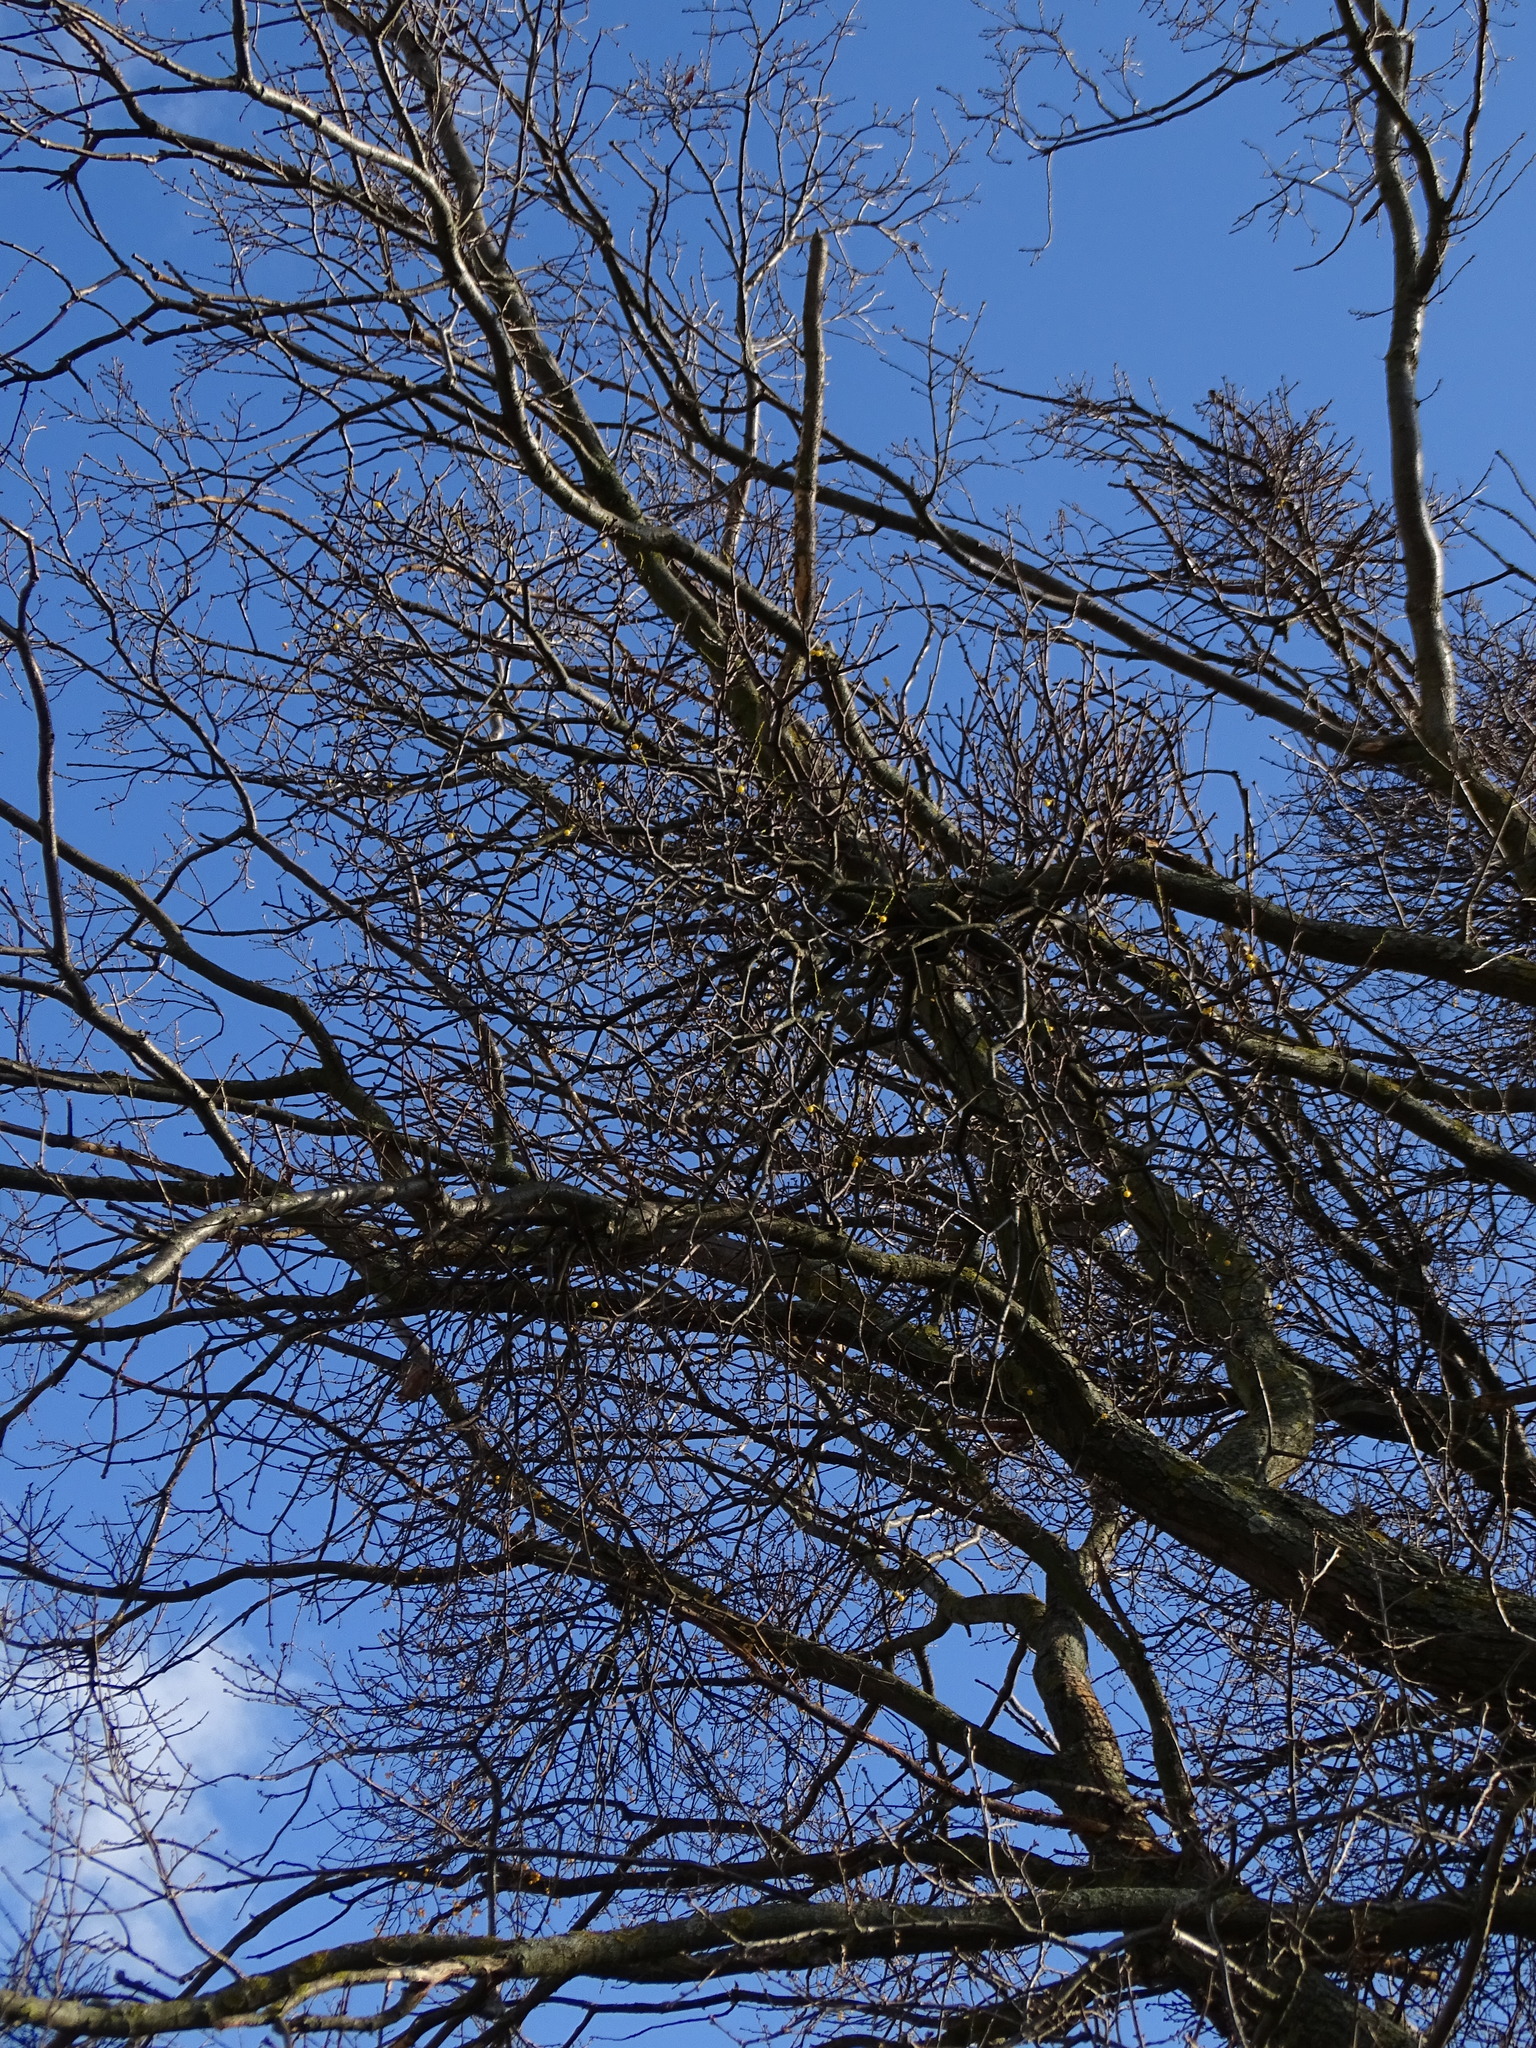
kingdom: Plantae
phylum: Tracheophyta
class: Magnoliopsida
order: Santalales
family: Loranthaceae
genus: Loranthus
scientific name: Loranthus europaeus
